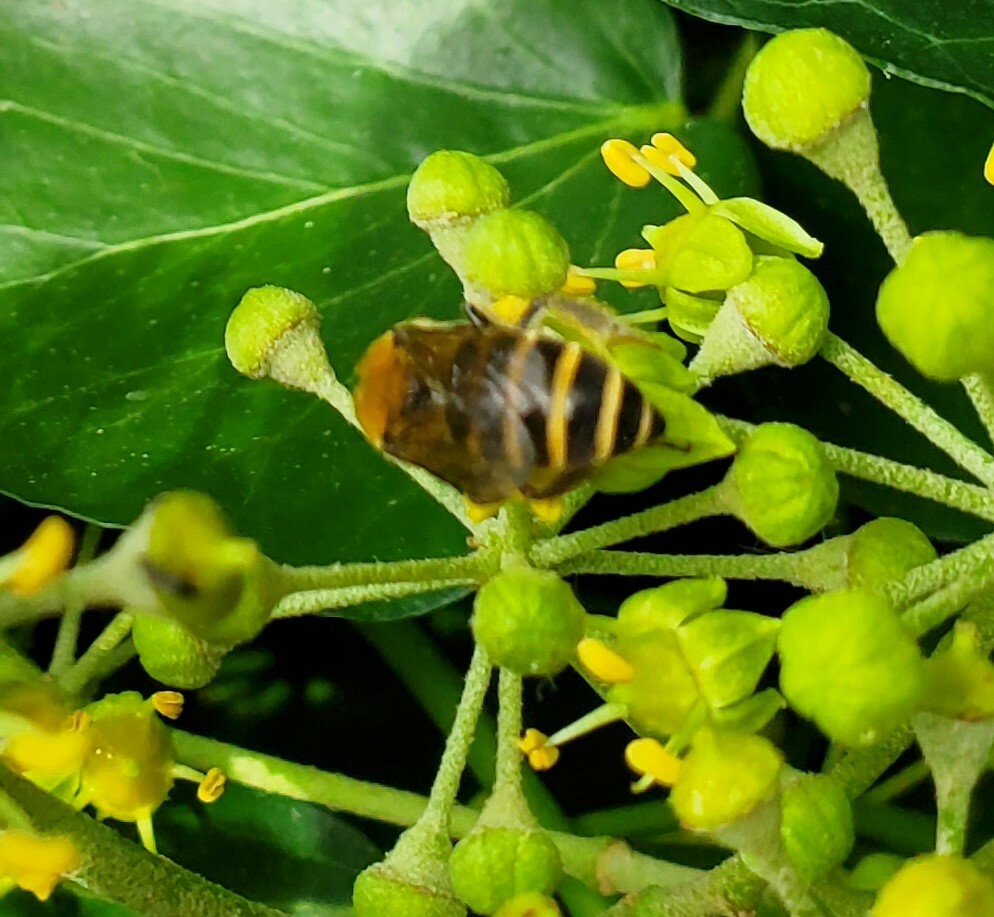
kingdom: Animalia
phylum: Arthropoda
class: Insecta
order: Hymenoptera
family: Colletidae
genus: Colletes
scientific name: Colletes hederae
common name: Ivy bee
